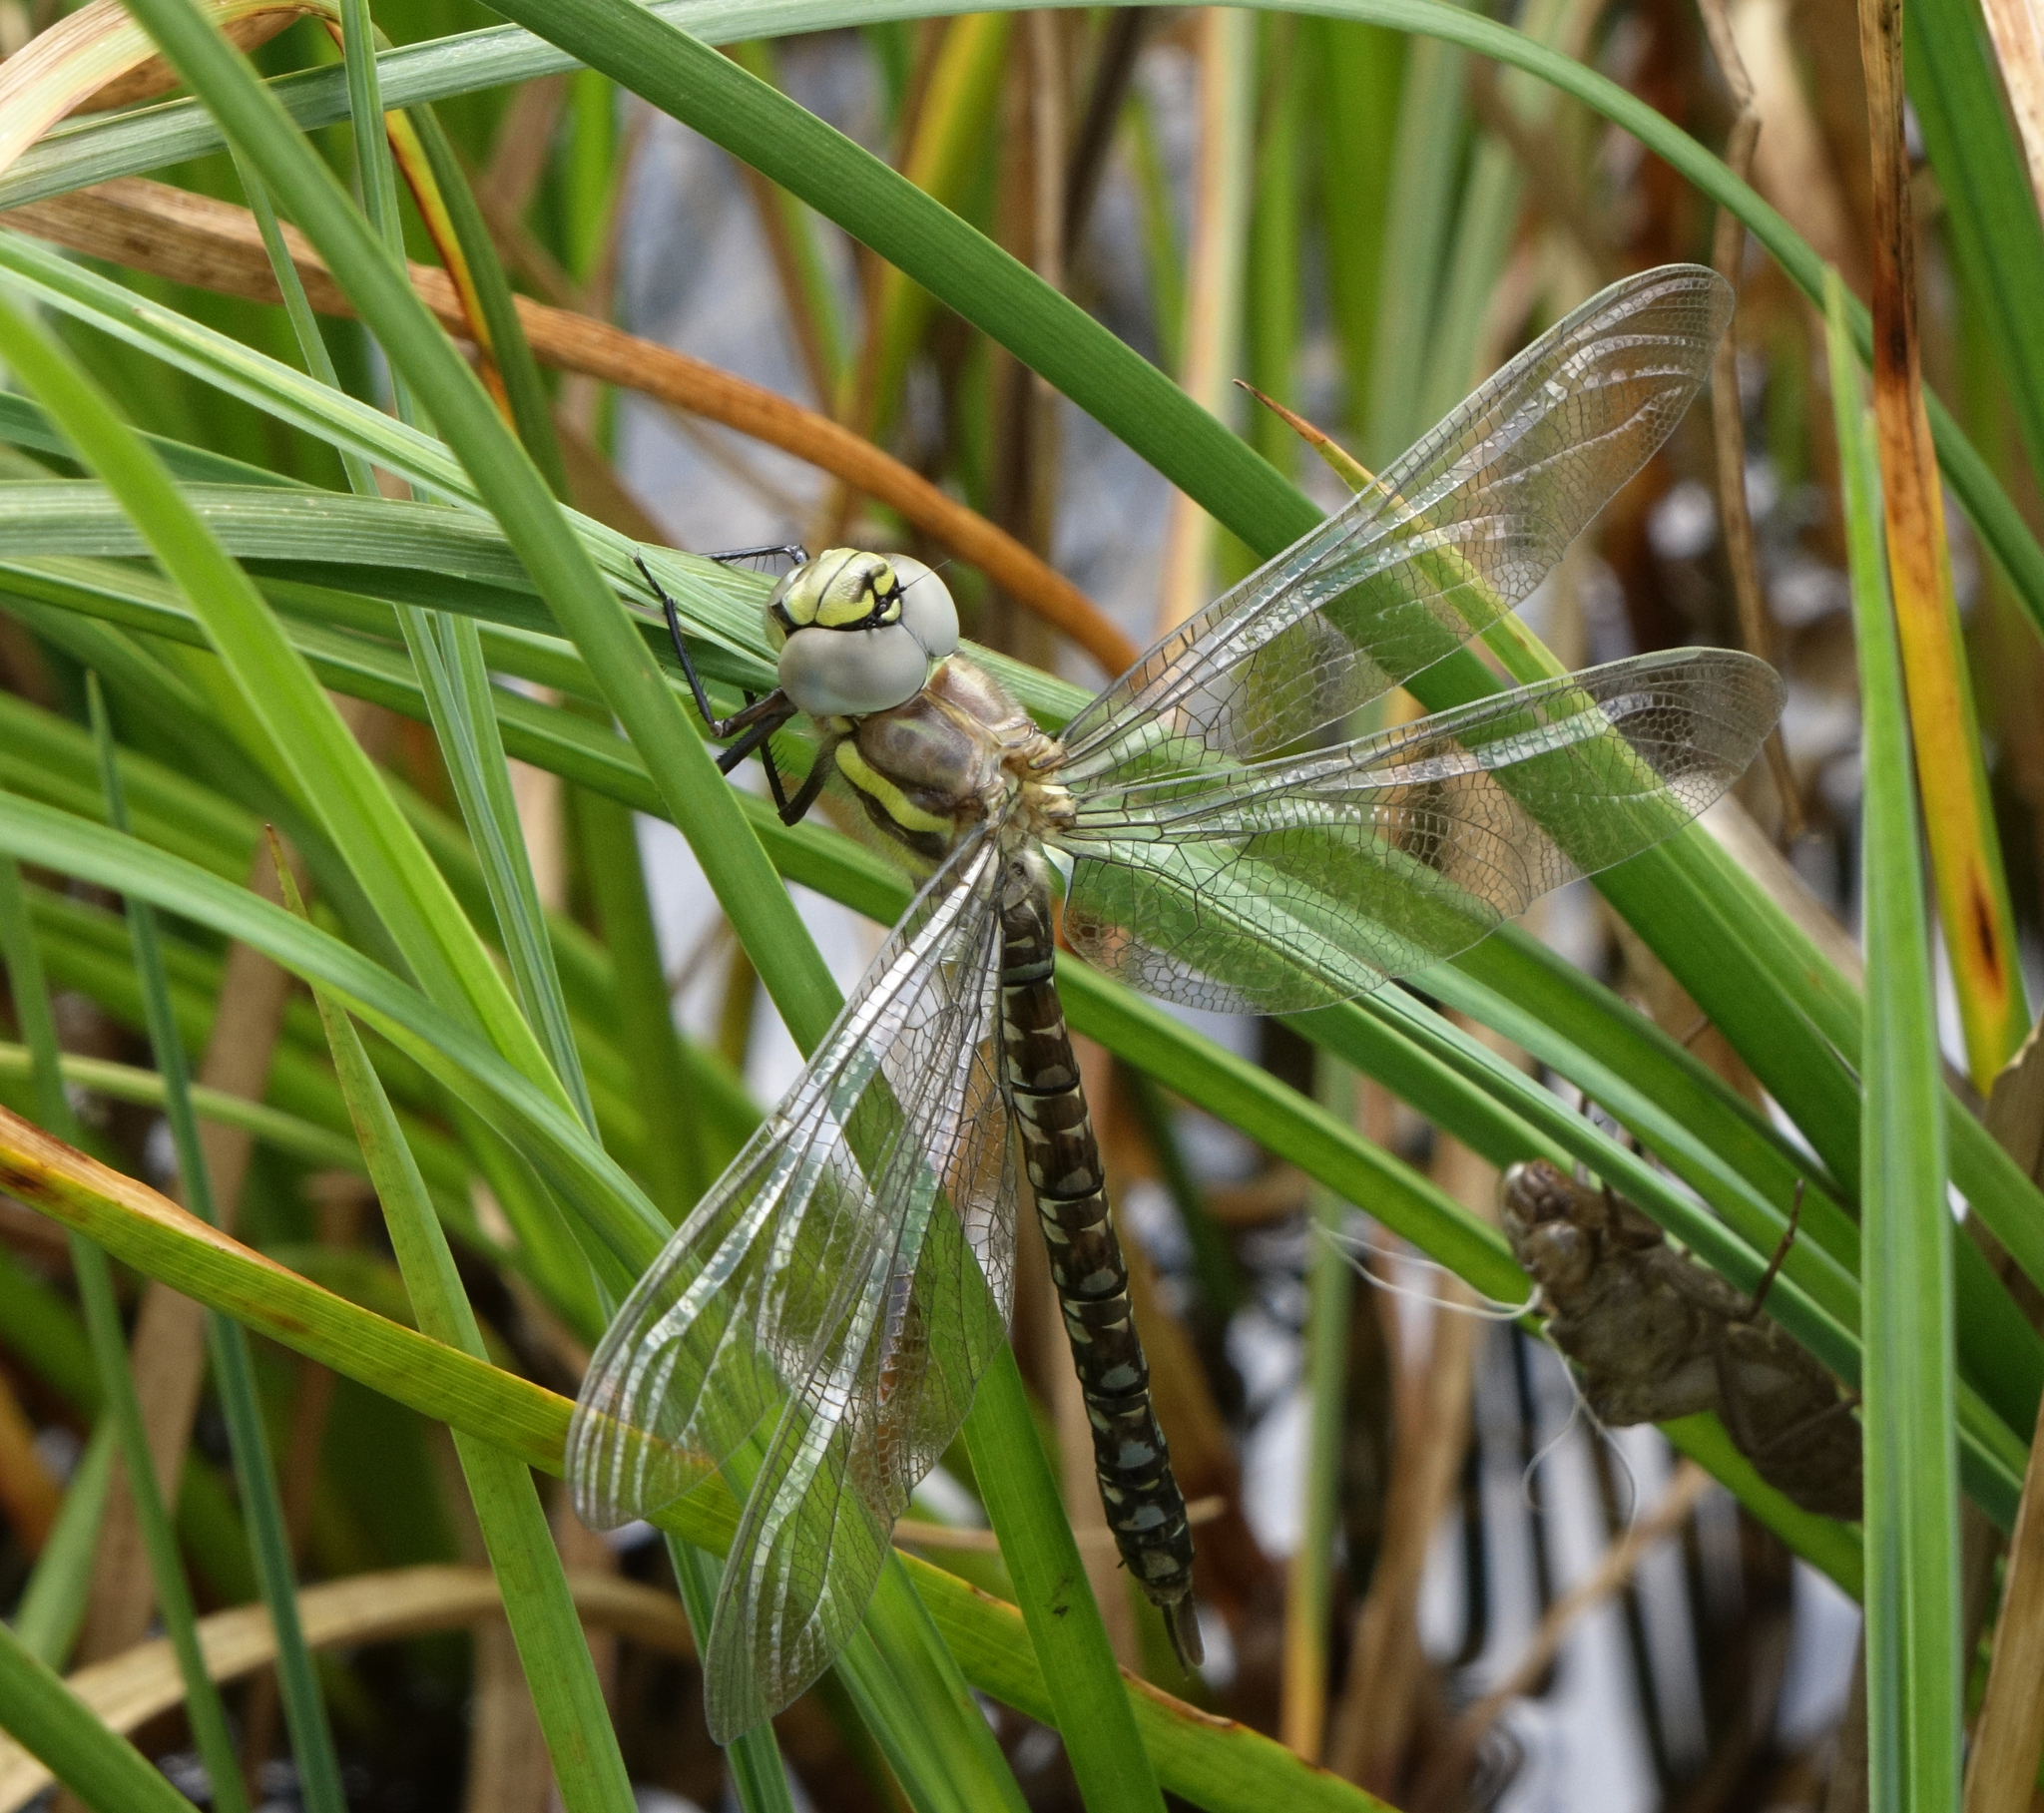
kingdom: Animalia
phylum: Arthropoda
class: Insecta
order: Odonata
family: Aeshnidae
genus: Aeshna
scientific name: Aeshna juncea
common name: Moorland hawker
